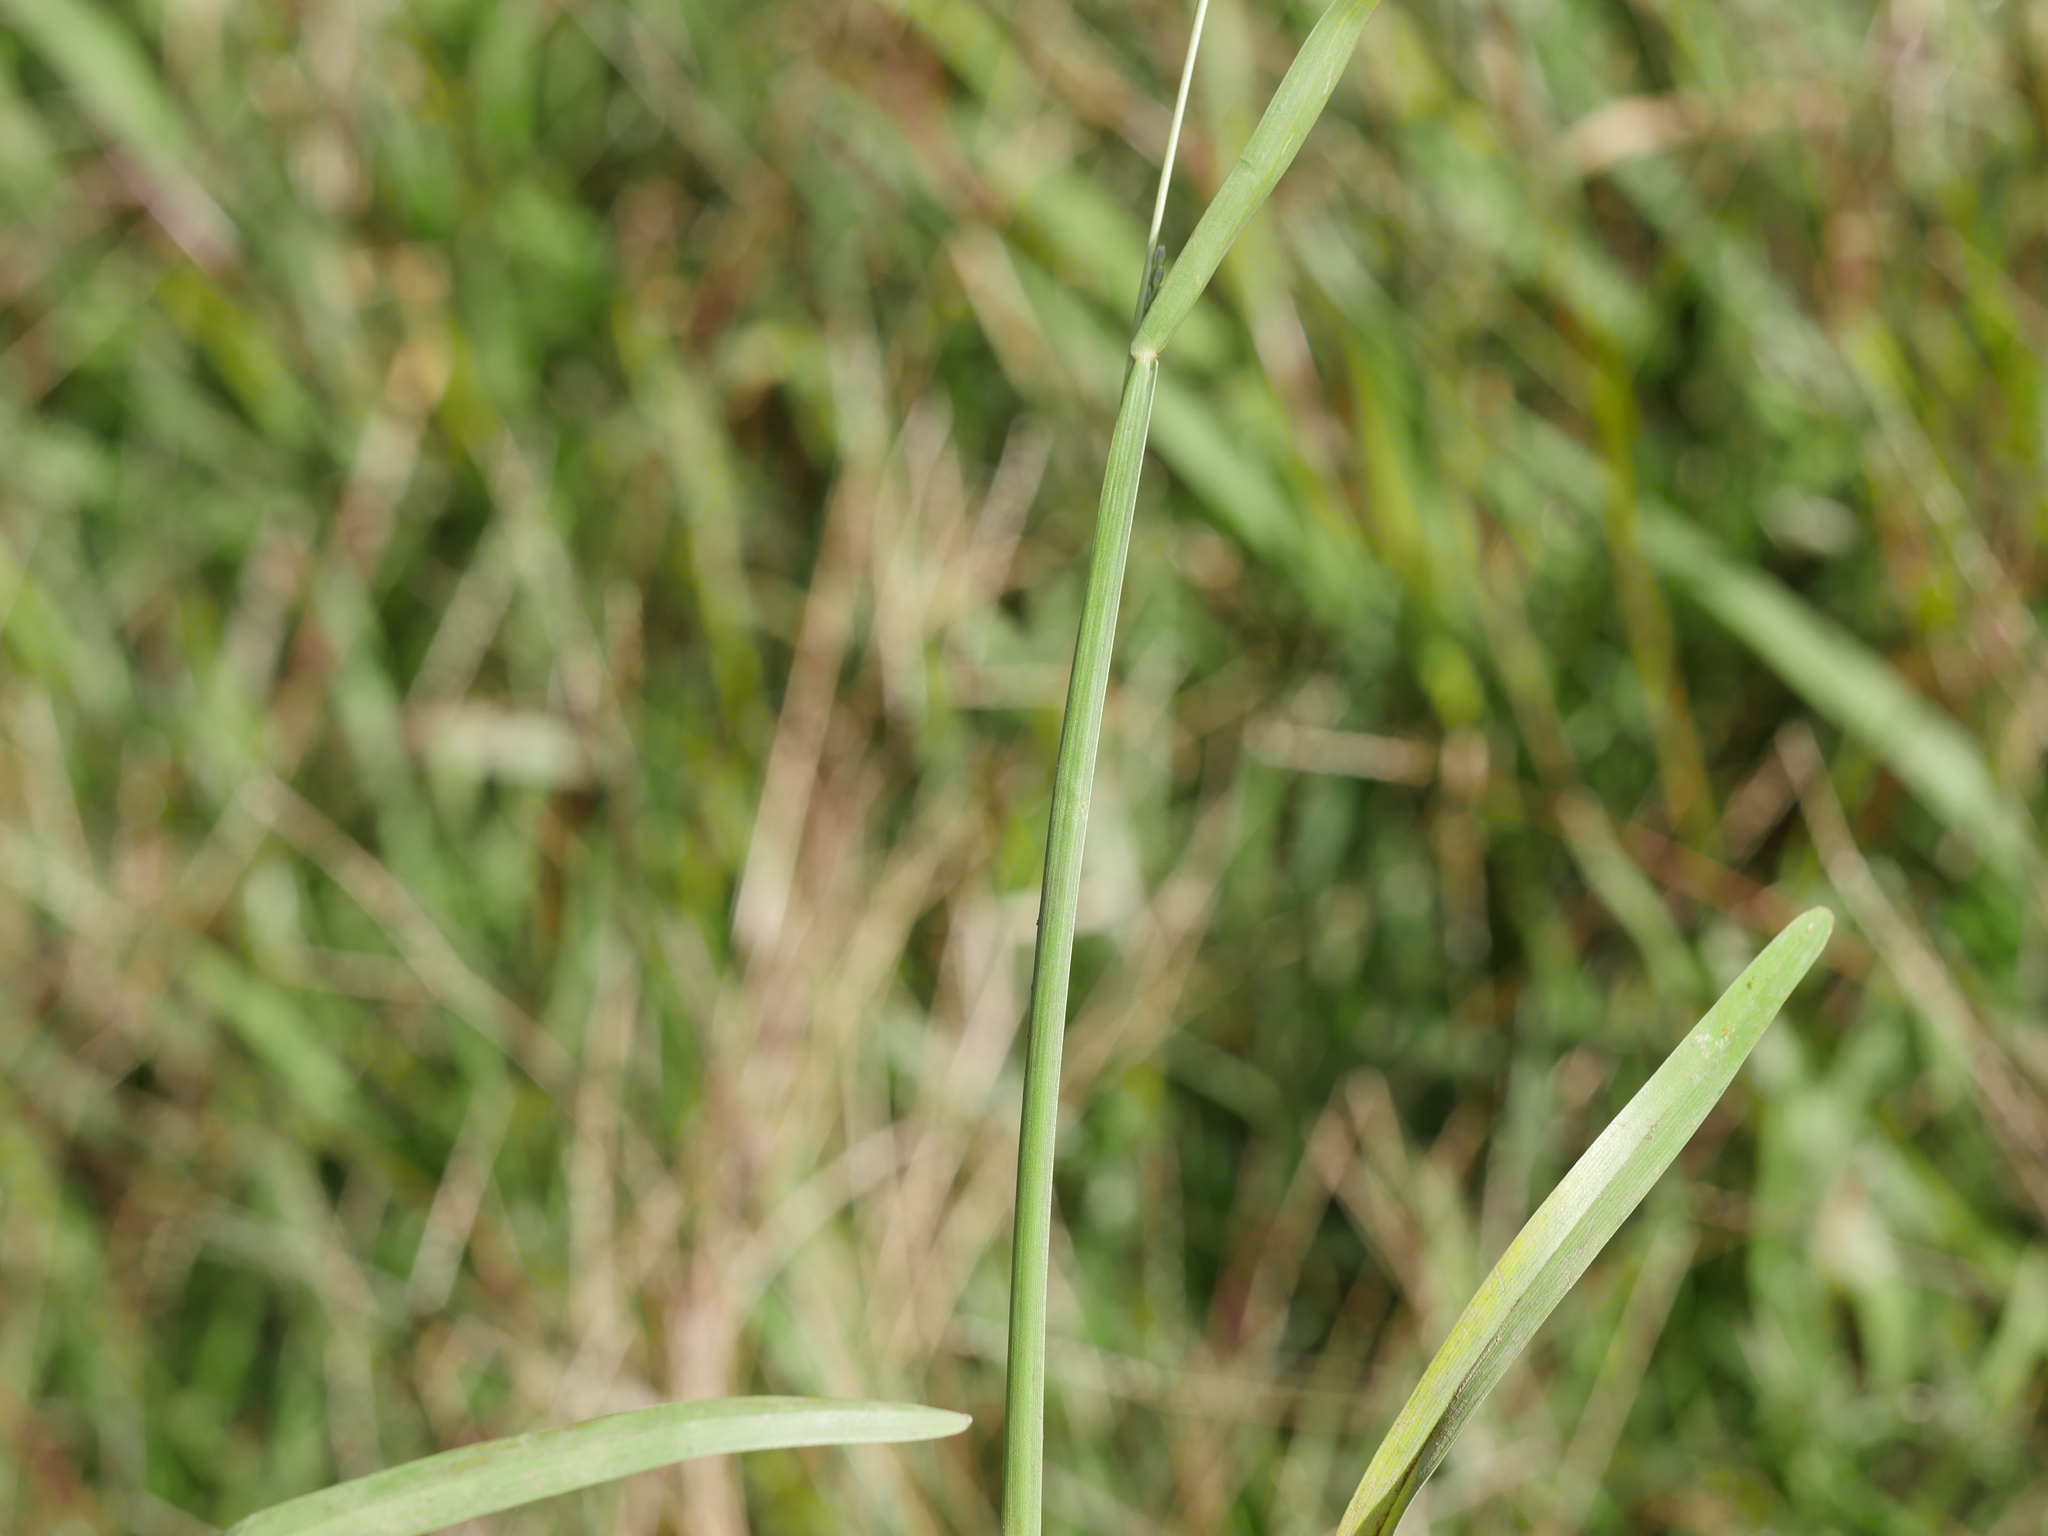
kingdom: Plantae
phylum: Tracheophyta
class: Liliopsida
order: Poales
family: Poaceae
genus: Axonopus
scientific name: Axonopus fissifolius
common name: Common carpetgrass
